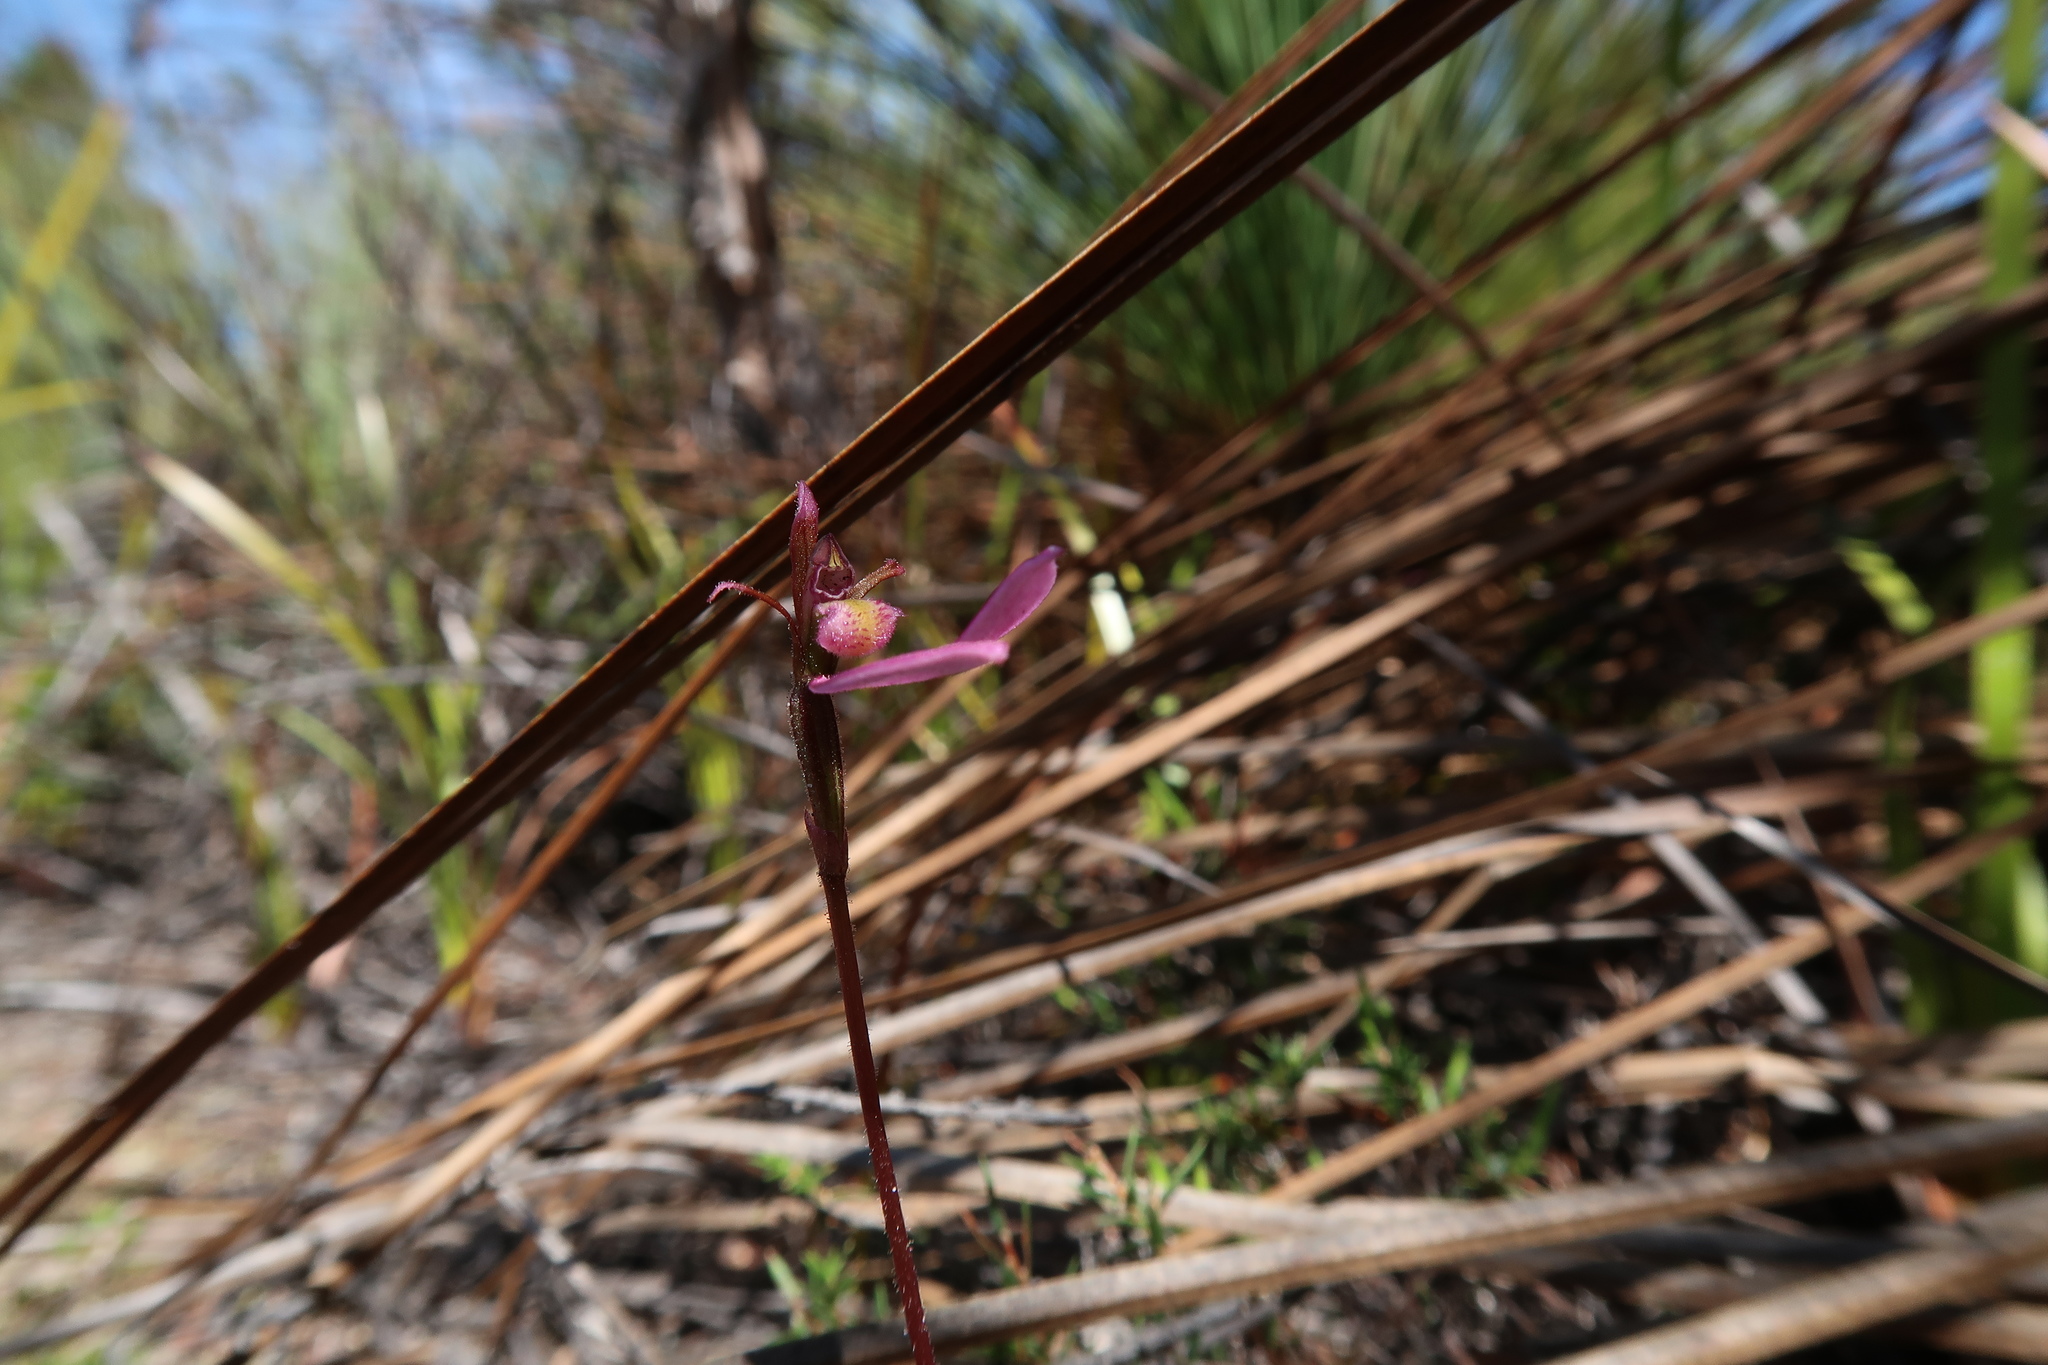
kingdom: Plantae
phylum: Tracheophyta
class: Liliopsida
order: Asparagales
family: Orchidaceae
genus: Eriochilus
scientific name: Eriochilus cucullatus
